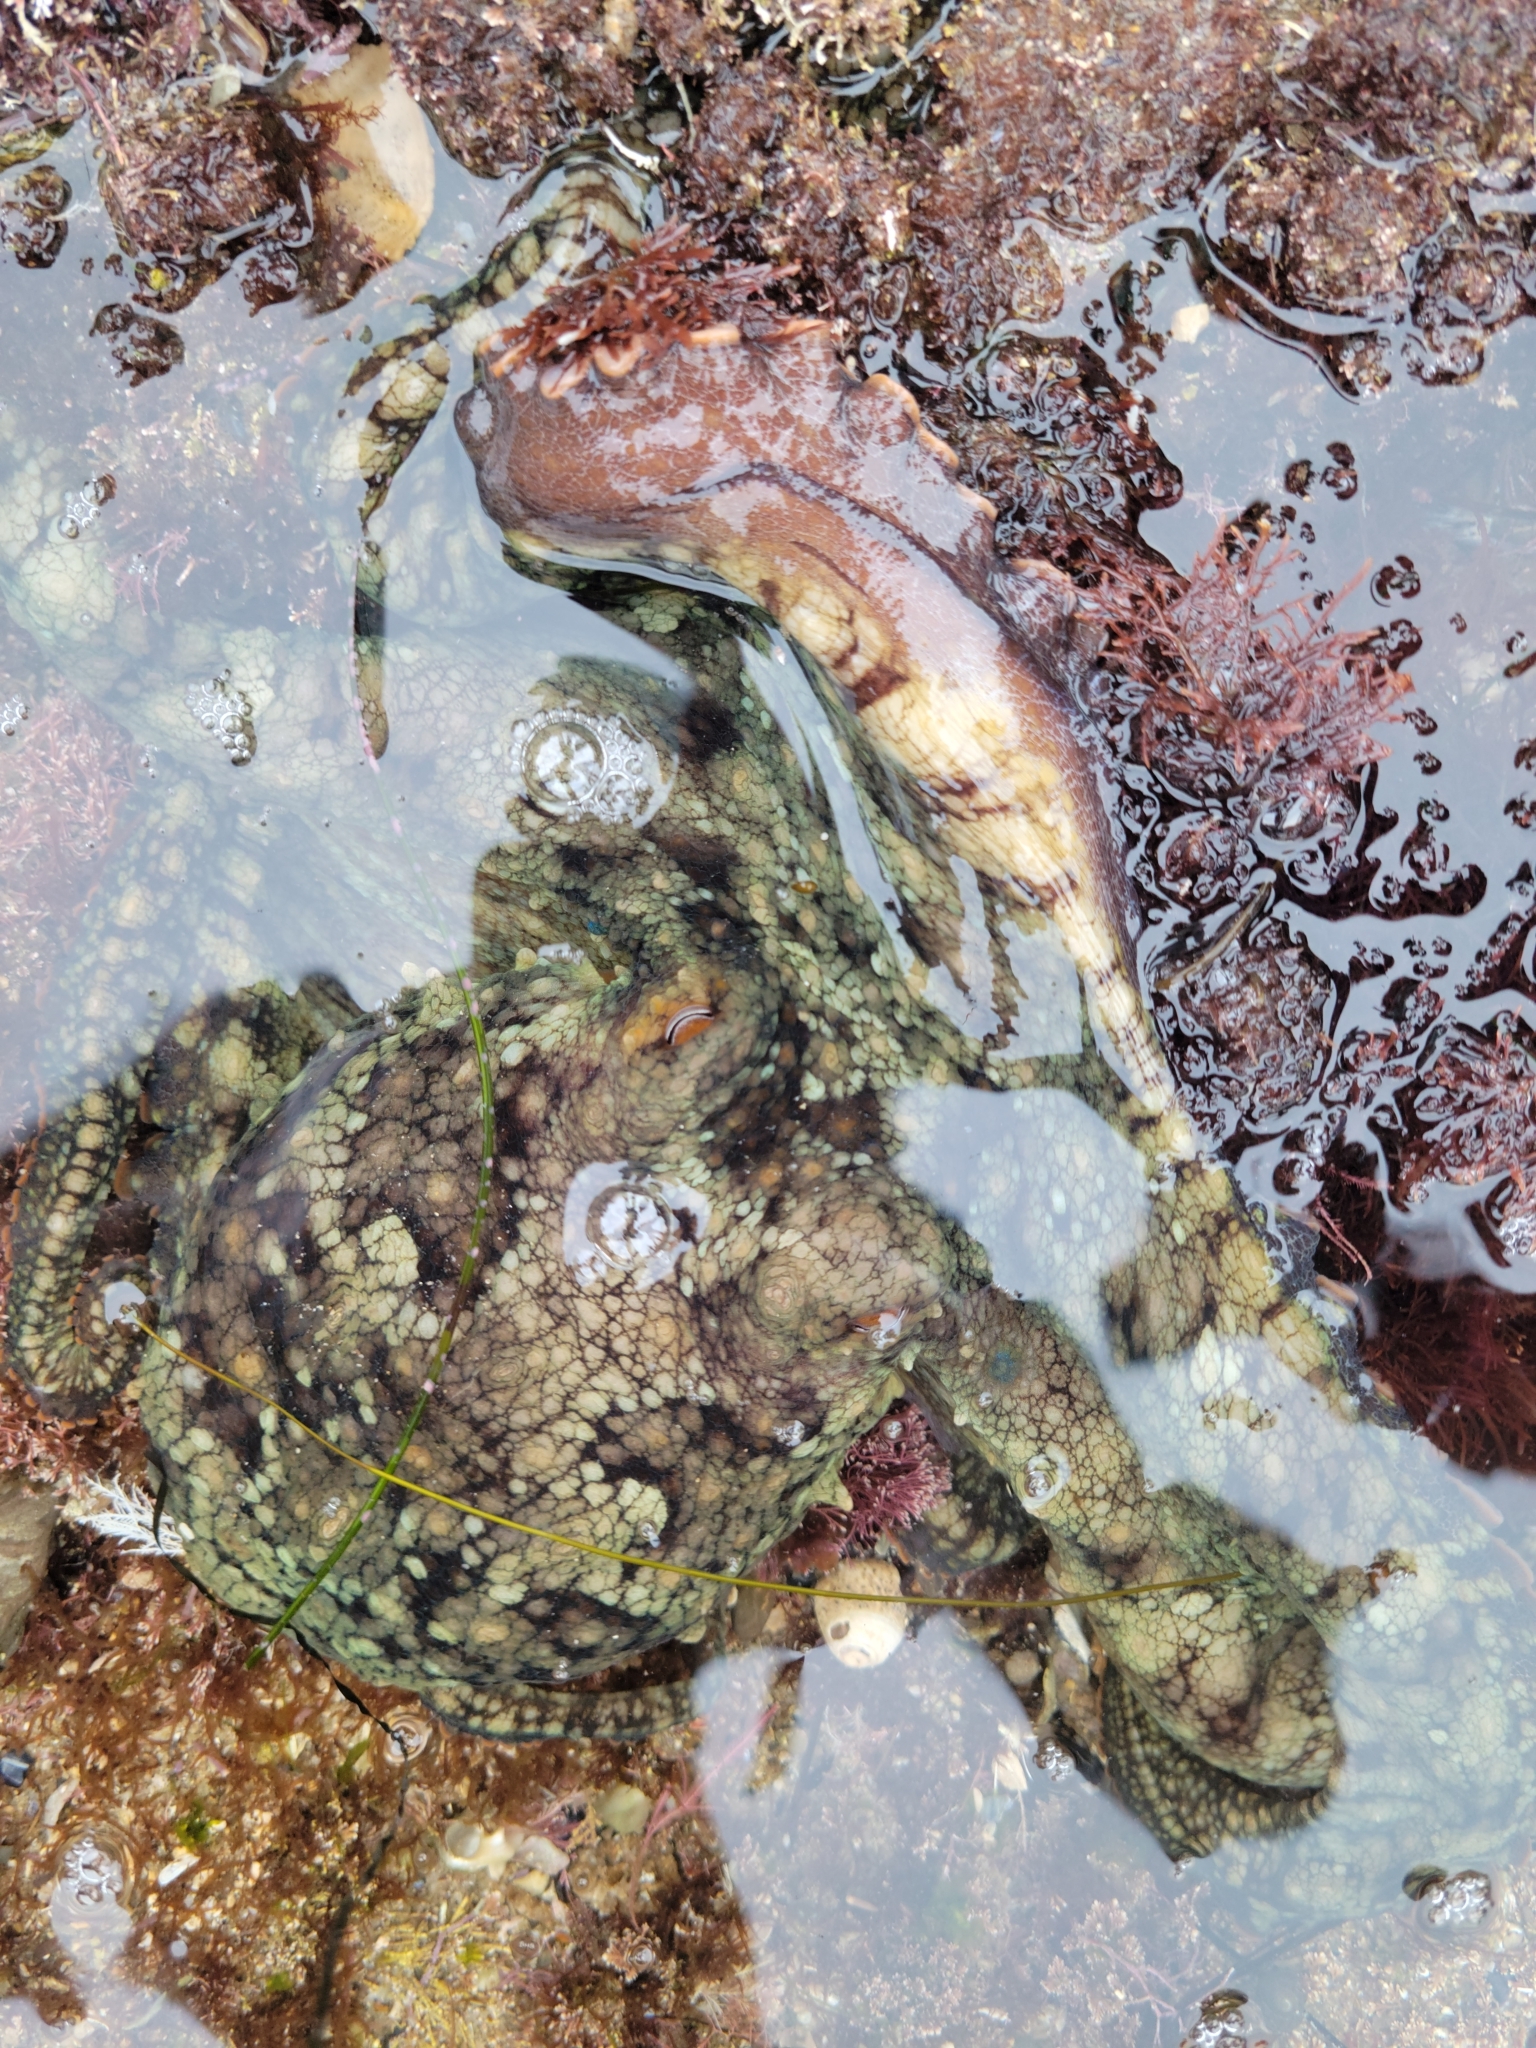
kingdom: Animalia
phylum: Mollusca
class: Cephalopoda
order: Octopoda
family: Octopodidae
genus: Octopus
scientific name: Octopus bimaculoides
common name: California two-spot octopus
